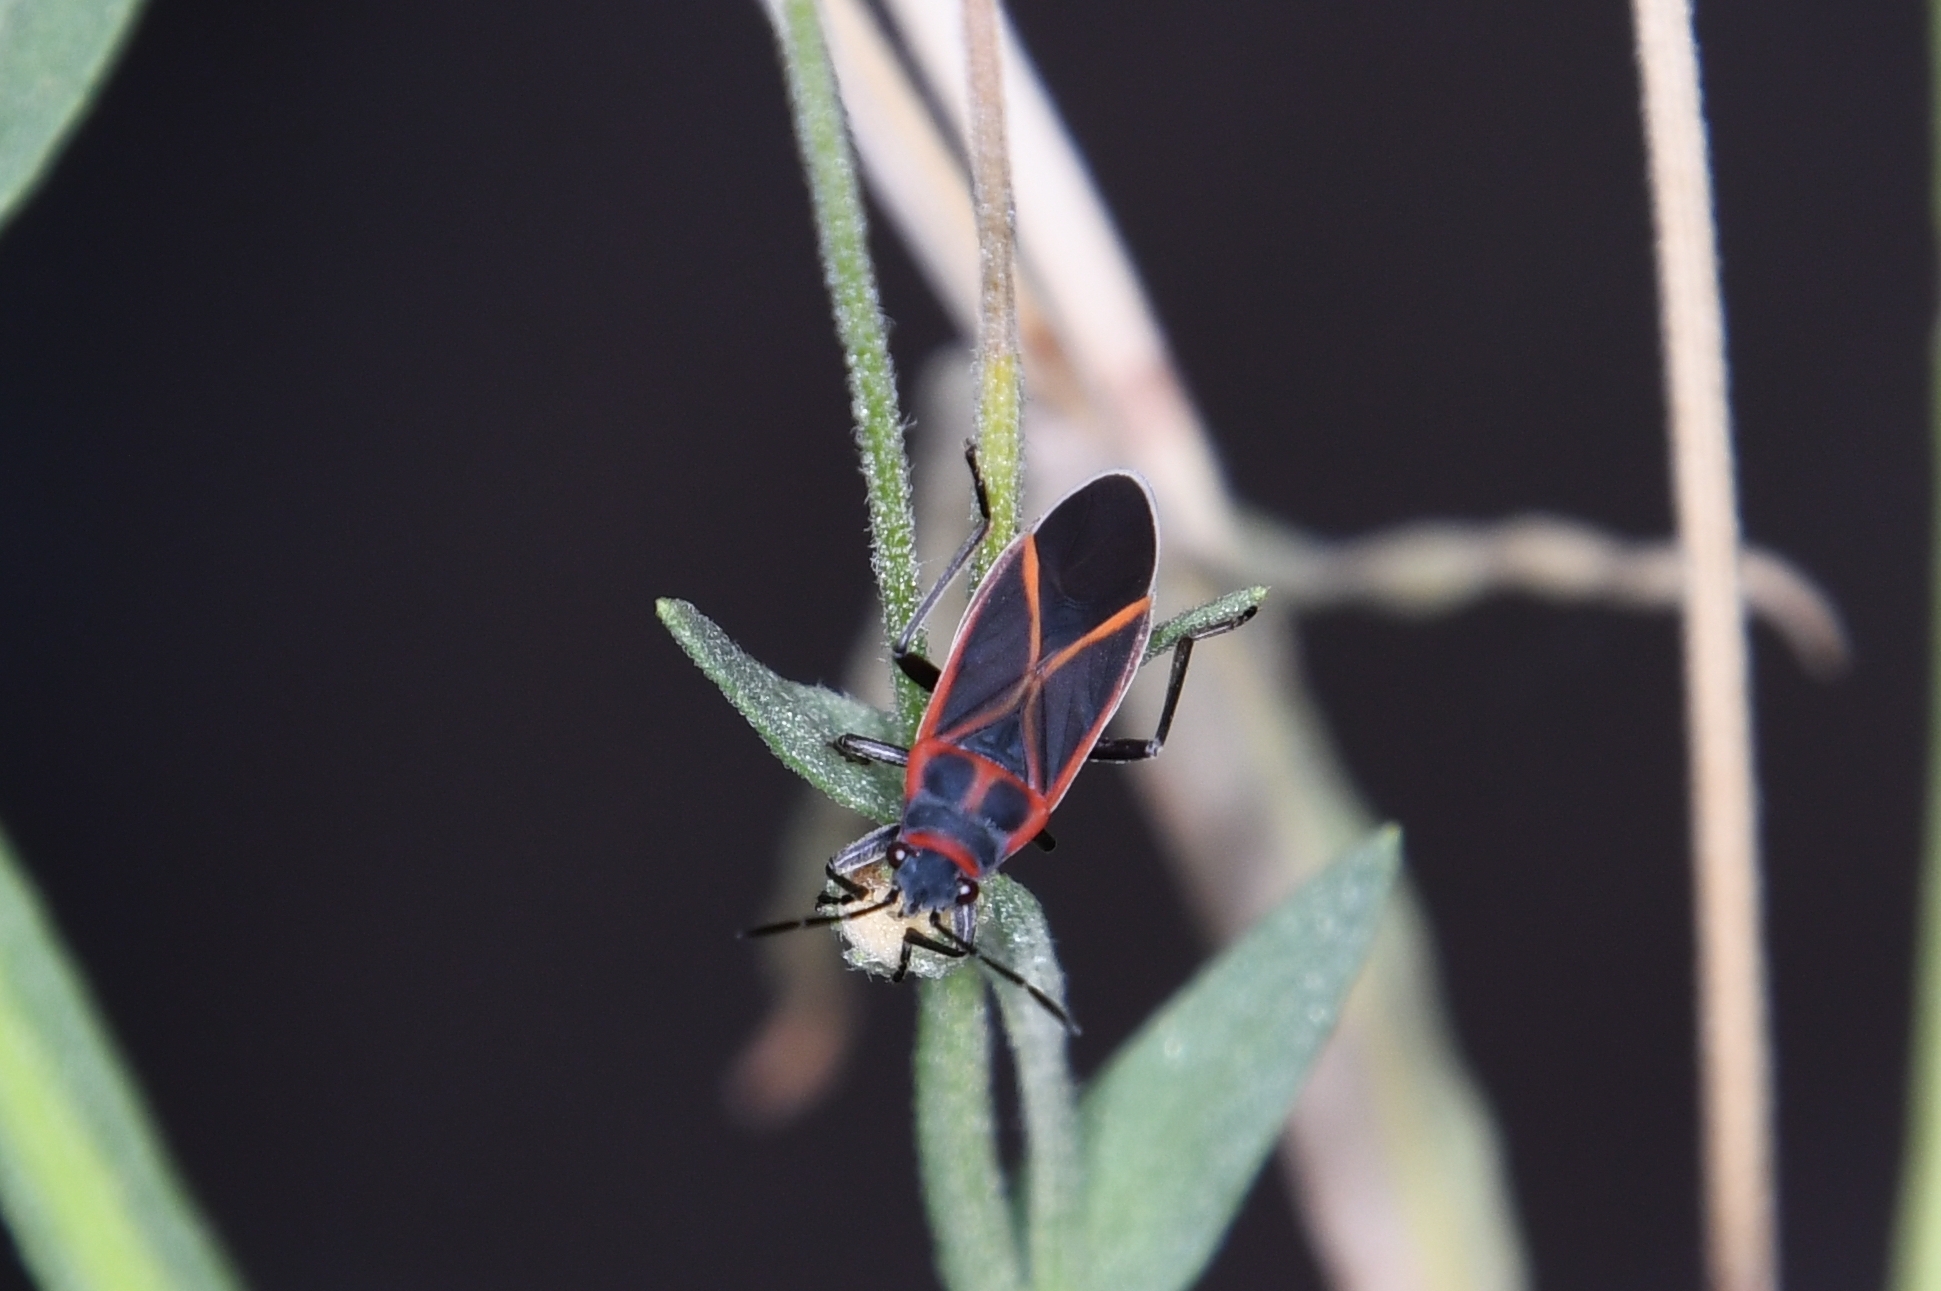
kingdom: Animalia
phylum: Arthropoda
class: Insecta
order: Hemiptera
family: Lygaeidae
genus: Ochrostomus
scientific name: Ochrostomus uhleri
